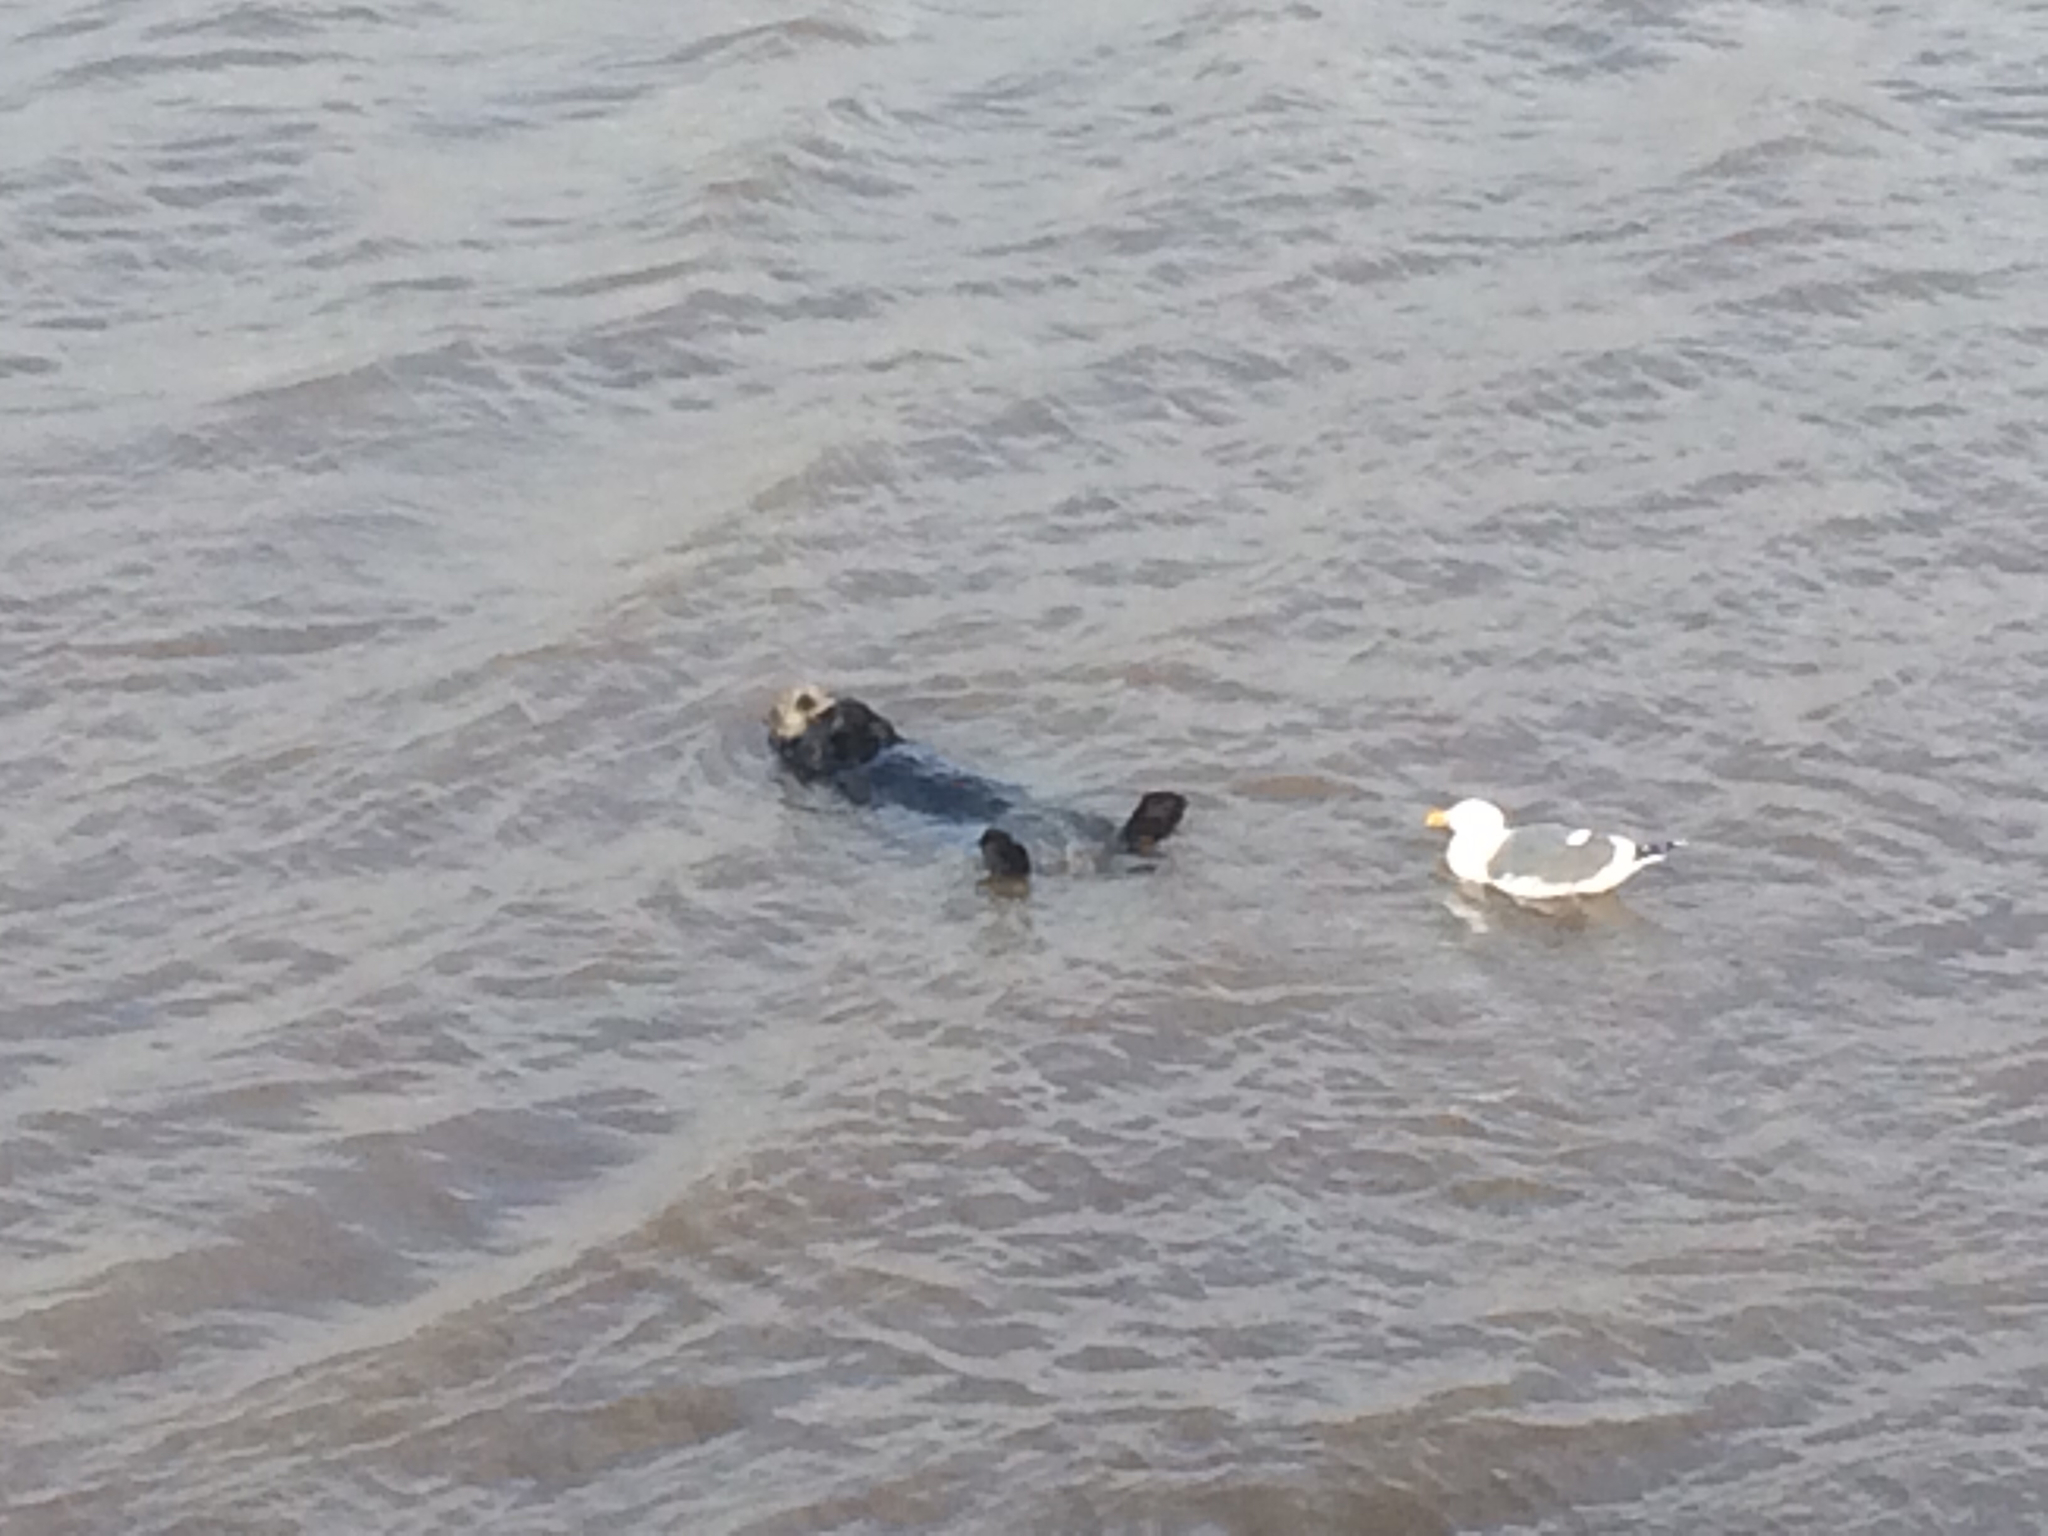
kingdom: Animalia
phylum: Chordata
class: Mammalia
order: Carnivora
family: Mustelidae
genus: Enhydra
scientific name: Enhydra lutris
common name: Sea otter
